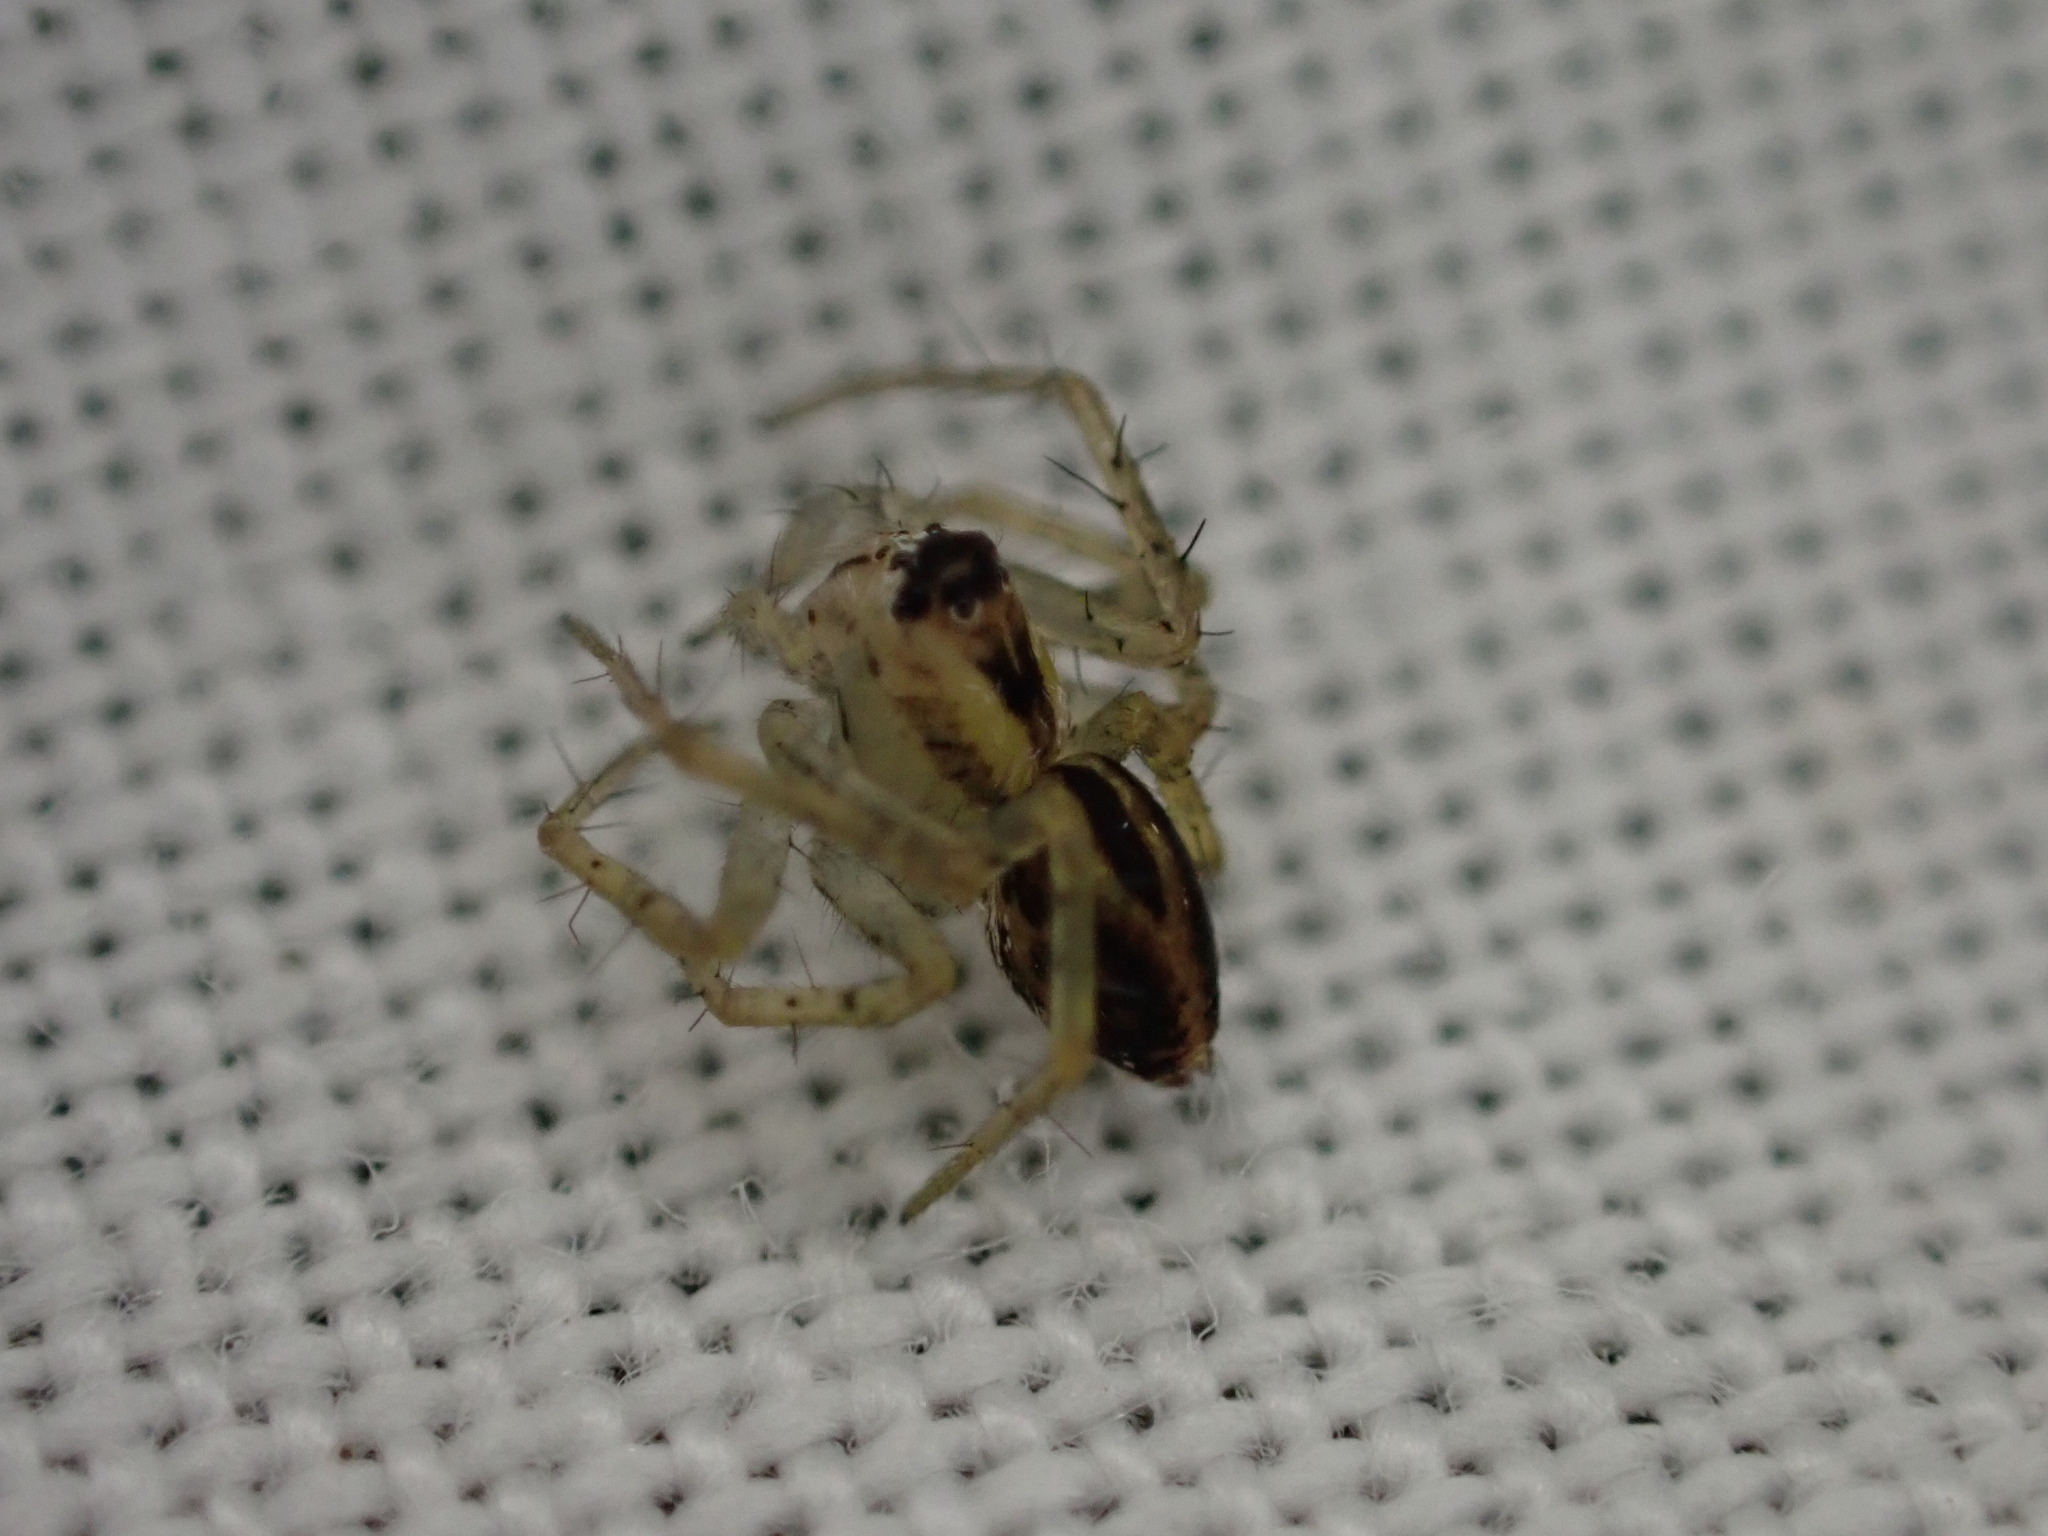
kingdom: Animalia
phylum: Arthropoda
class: Arachnida
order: Araneae
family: Oxyopidae
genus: Oxyopes
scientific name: Oxyopes
